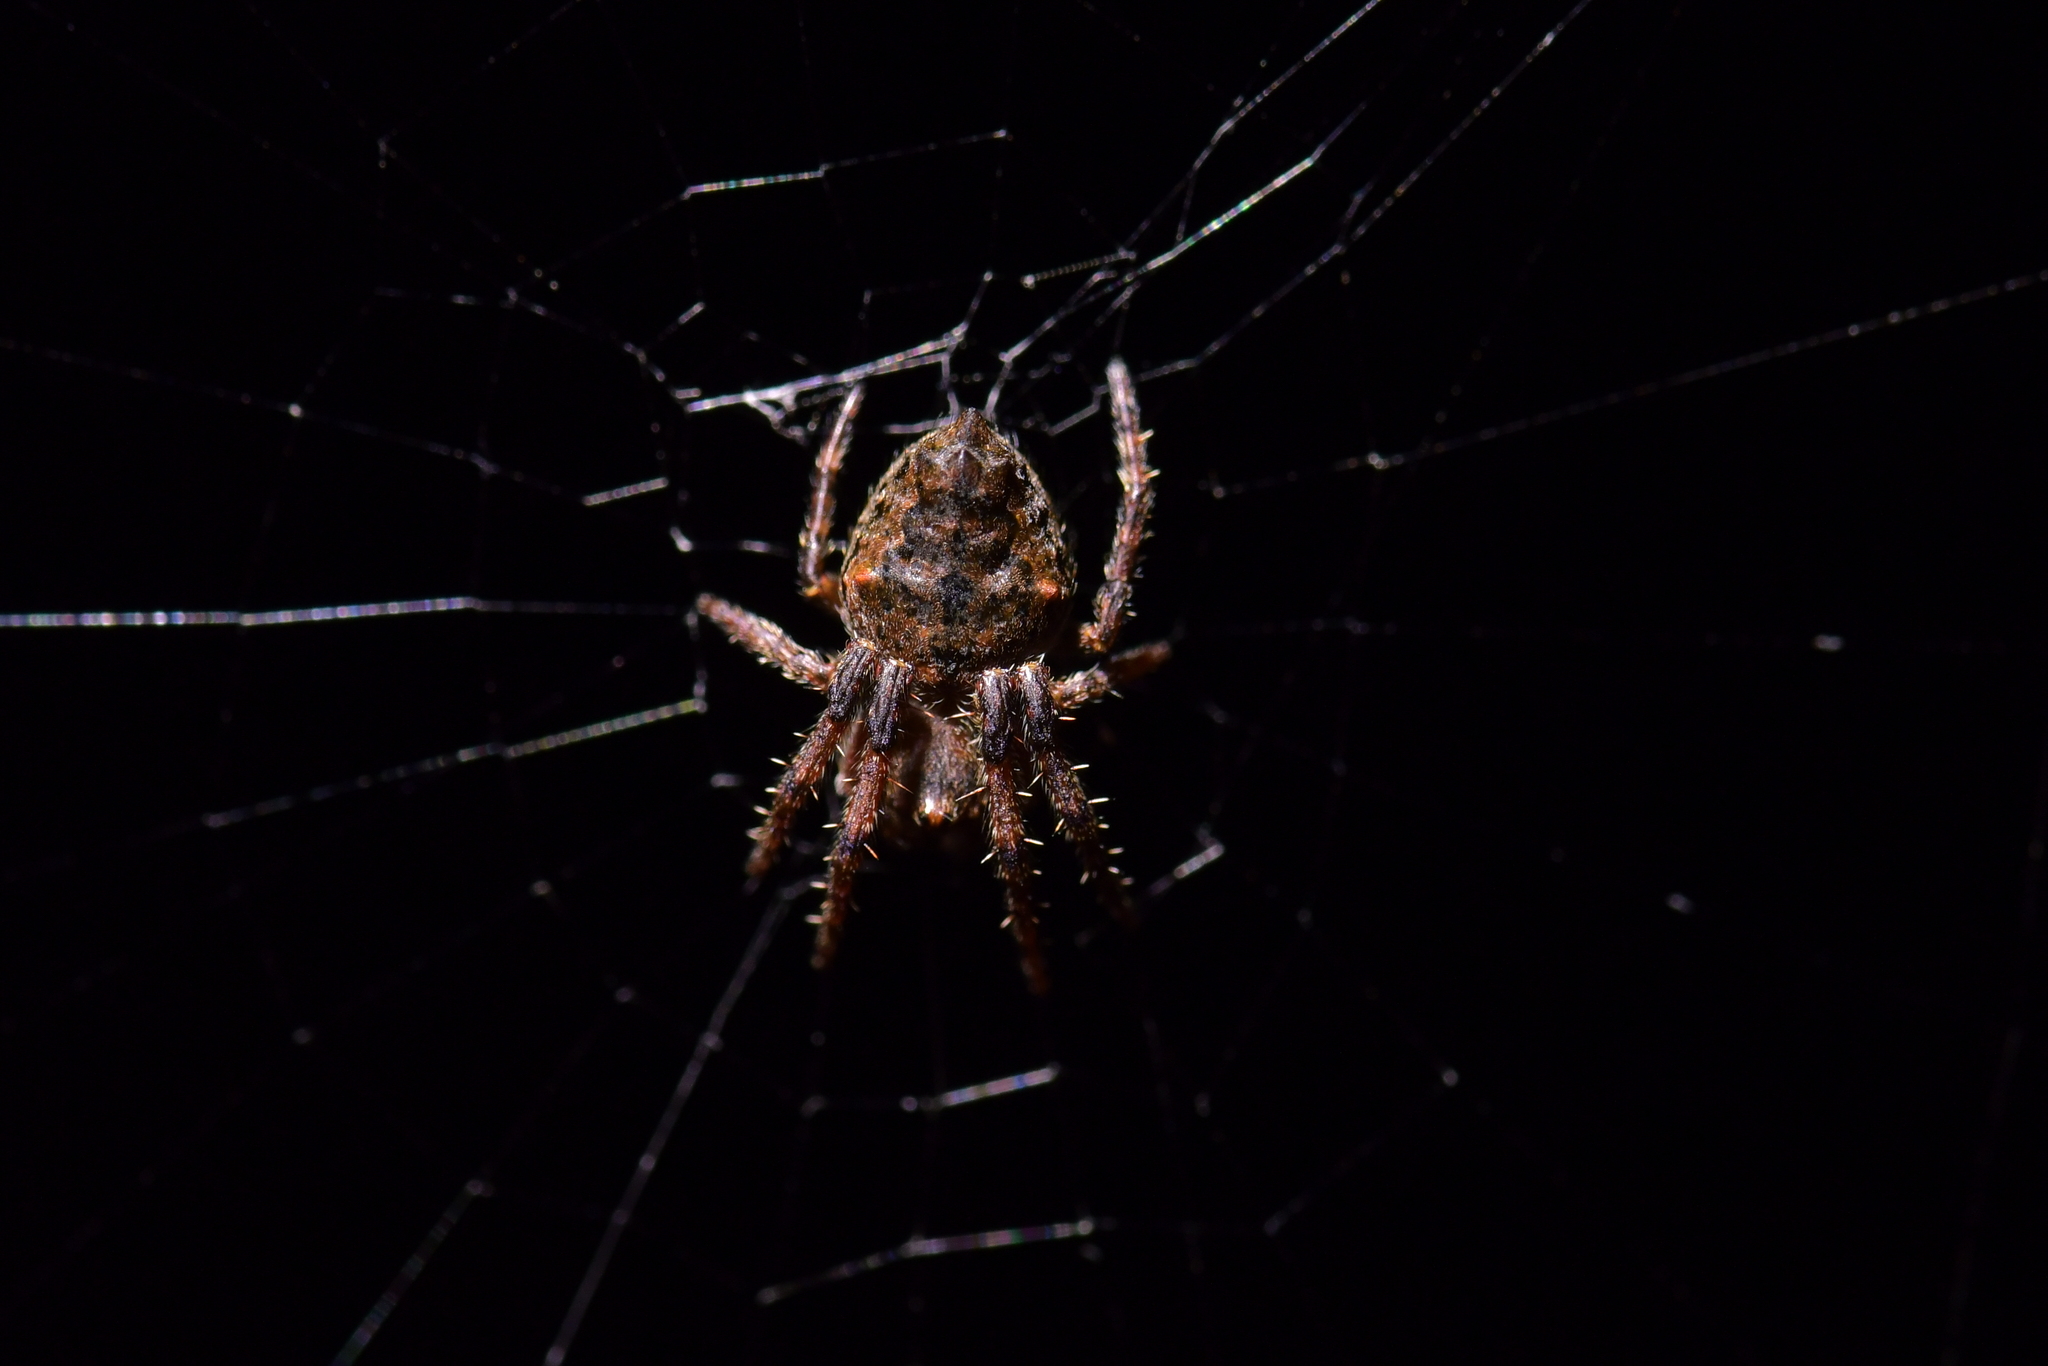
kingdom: Animalia
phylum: Arthropoda
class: Arachnida
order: Araneae
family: Araneidae
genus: Eriophora
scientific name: Eriophora pustulosa
